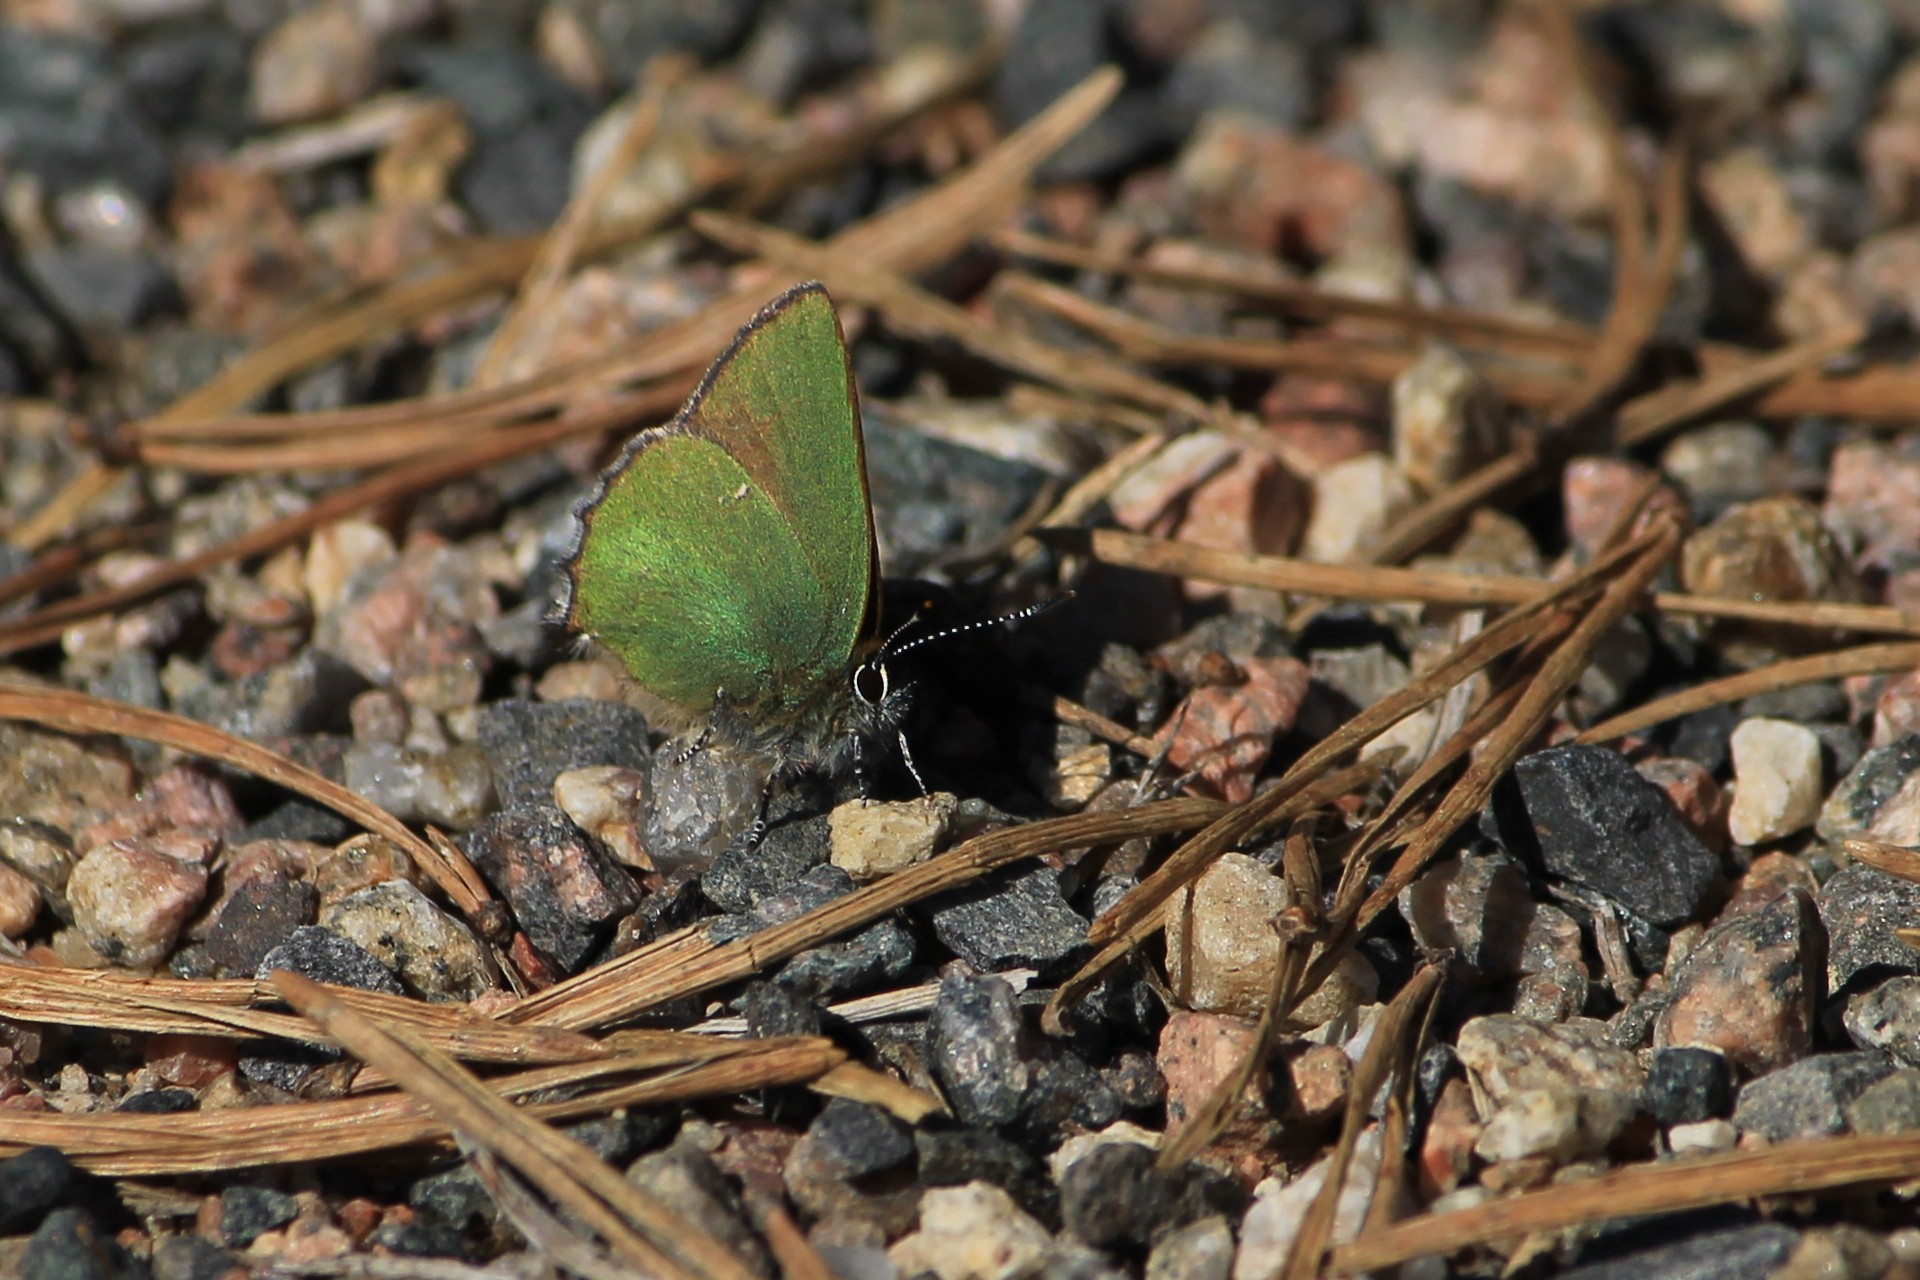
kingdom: Animalia
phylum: Arthropoda
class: Insecta
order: Lepidoptera
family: Lycaenidae
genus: Callophrys
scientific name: Callophrys rubi
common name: Green hairstreak
